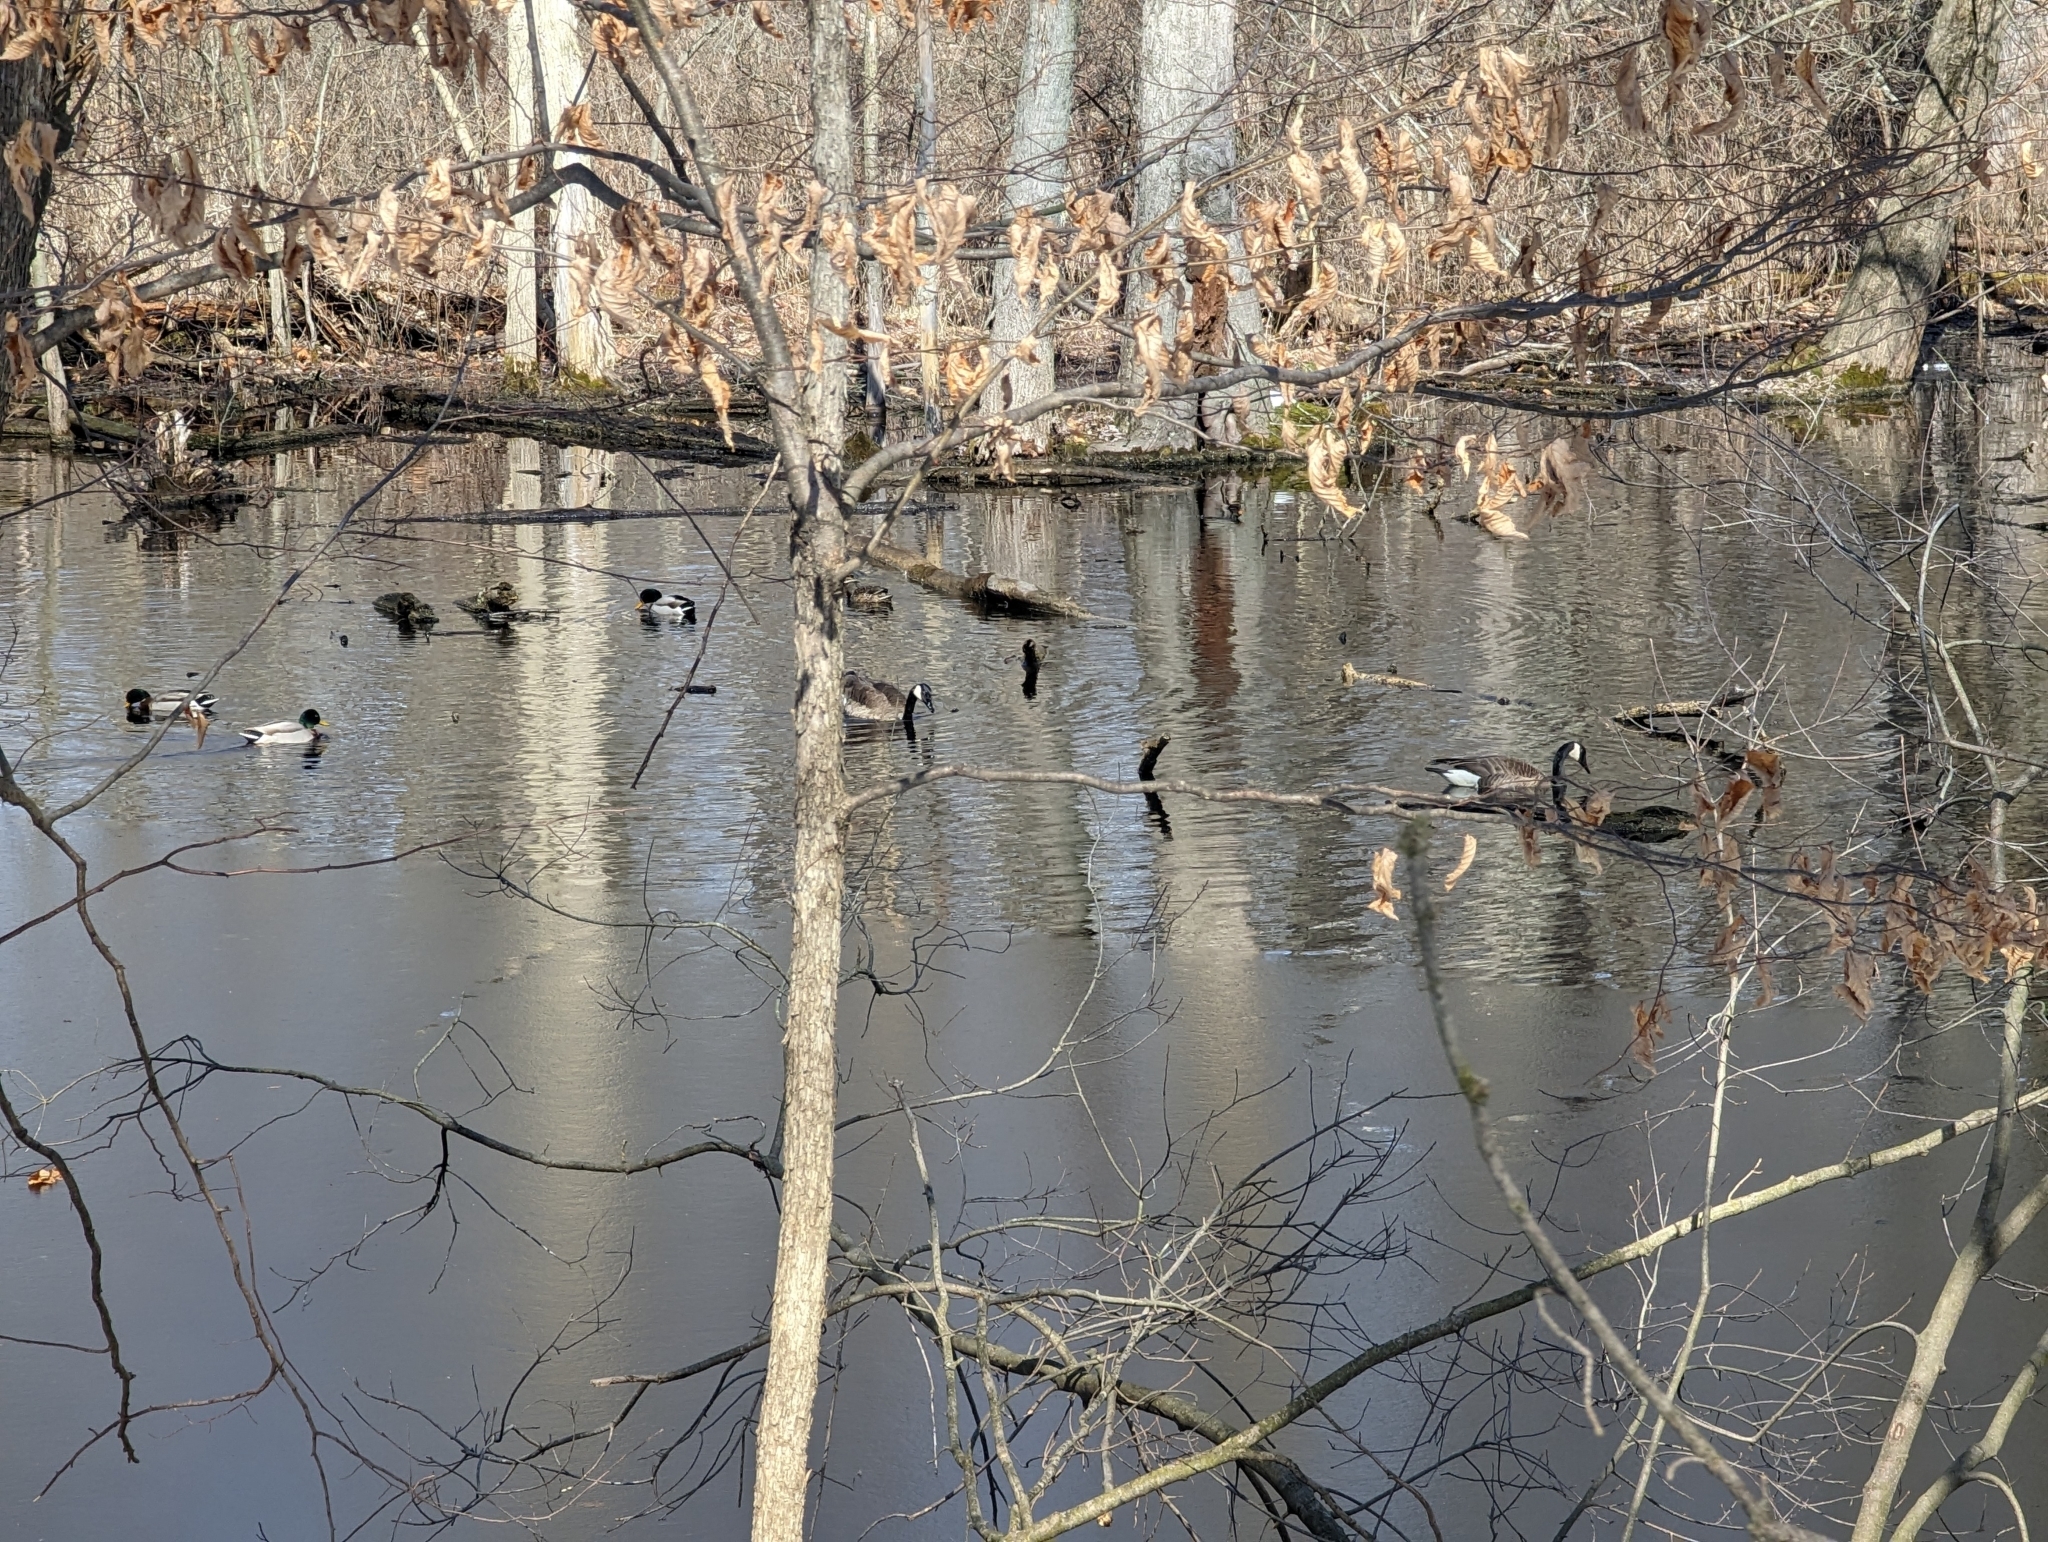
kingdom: Animalia
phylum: Chordata
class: Aves
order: Anseriformes
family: Anatidae
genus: Anas
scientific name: Anas platyrhynchos
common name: Mallard
